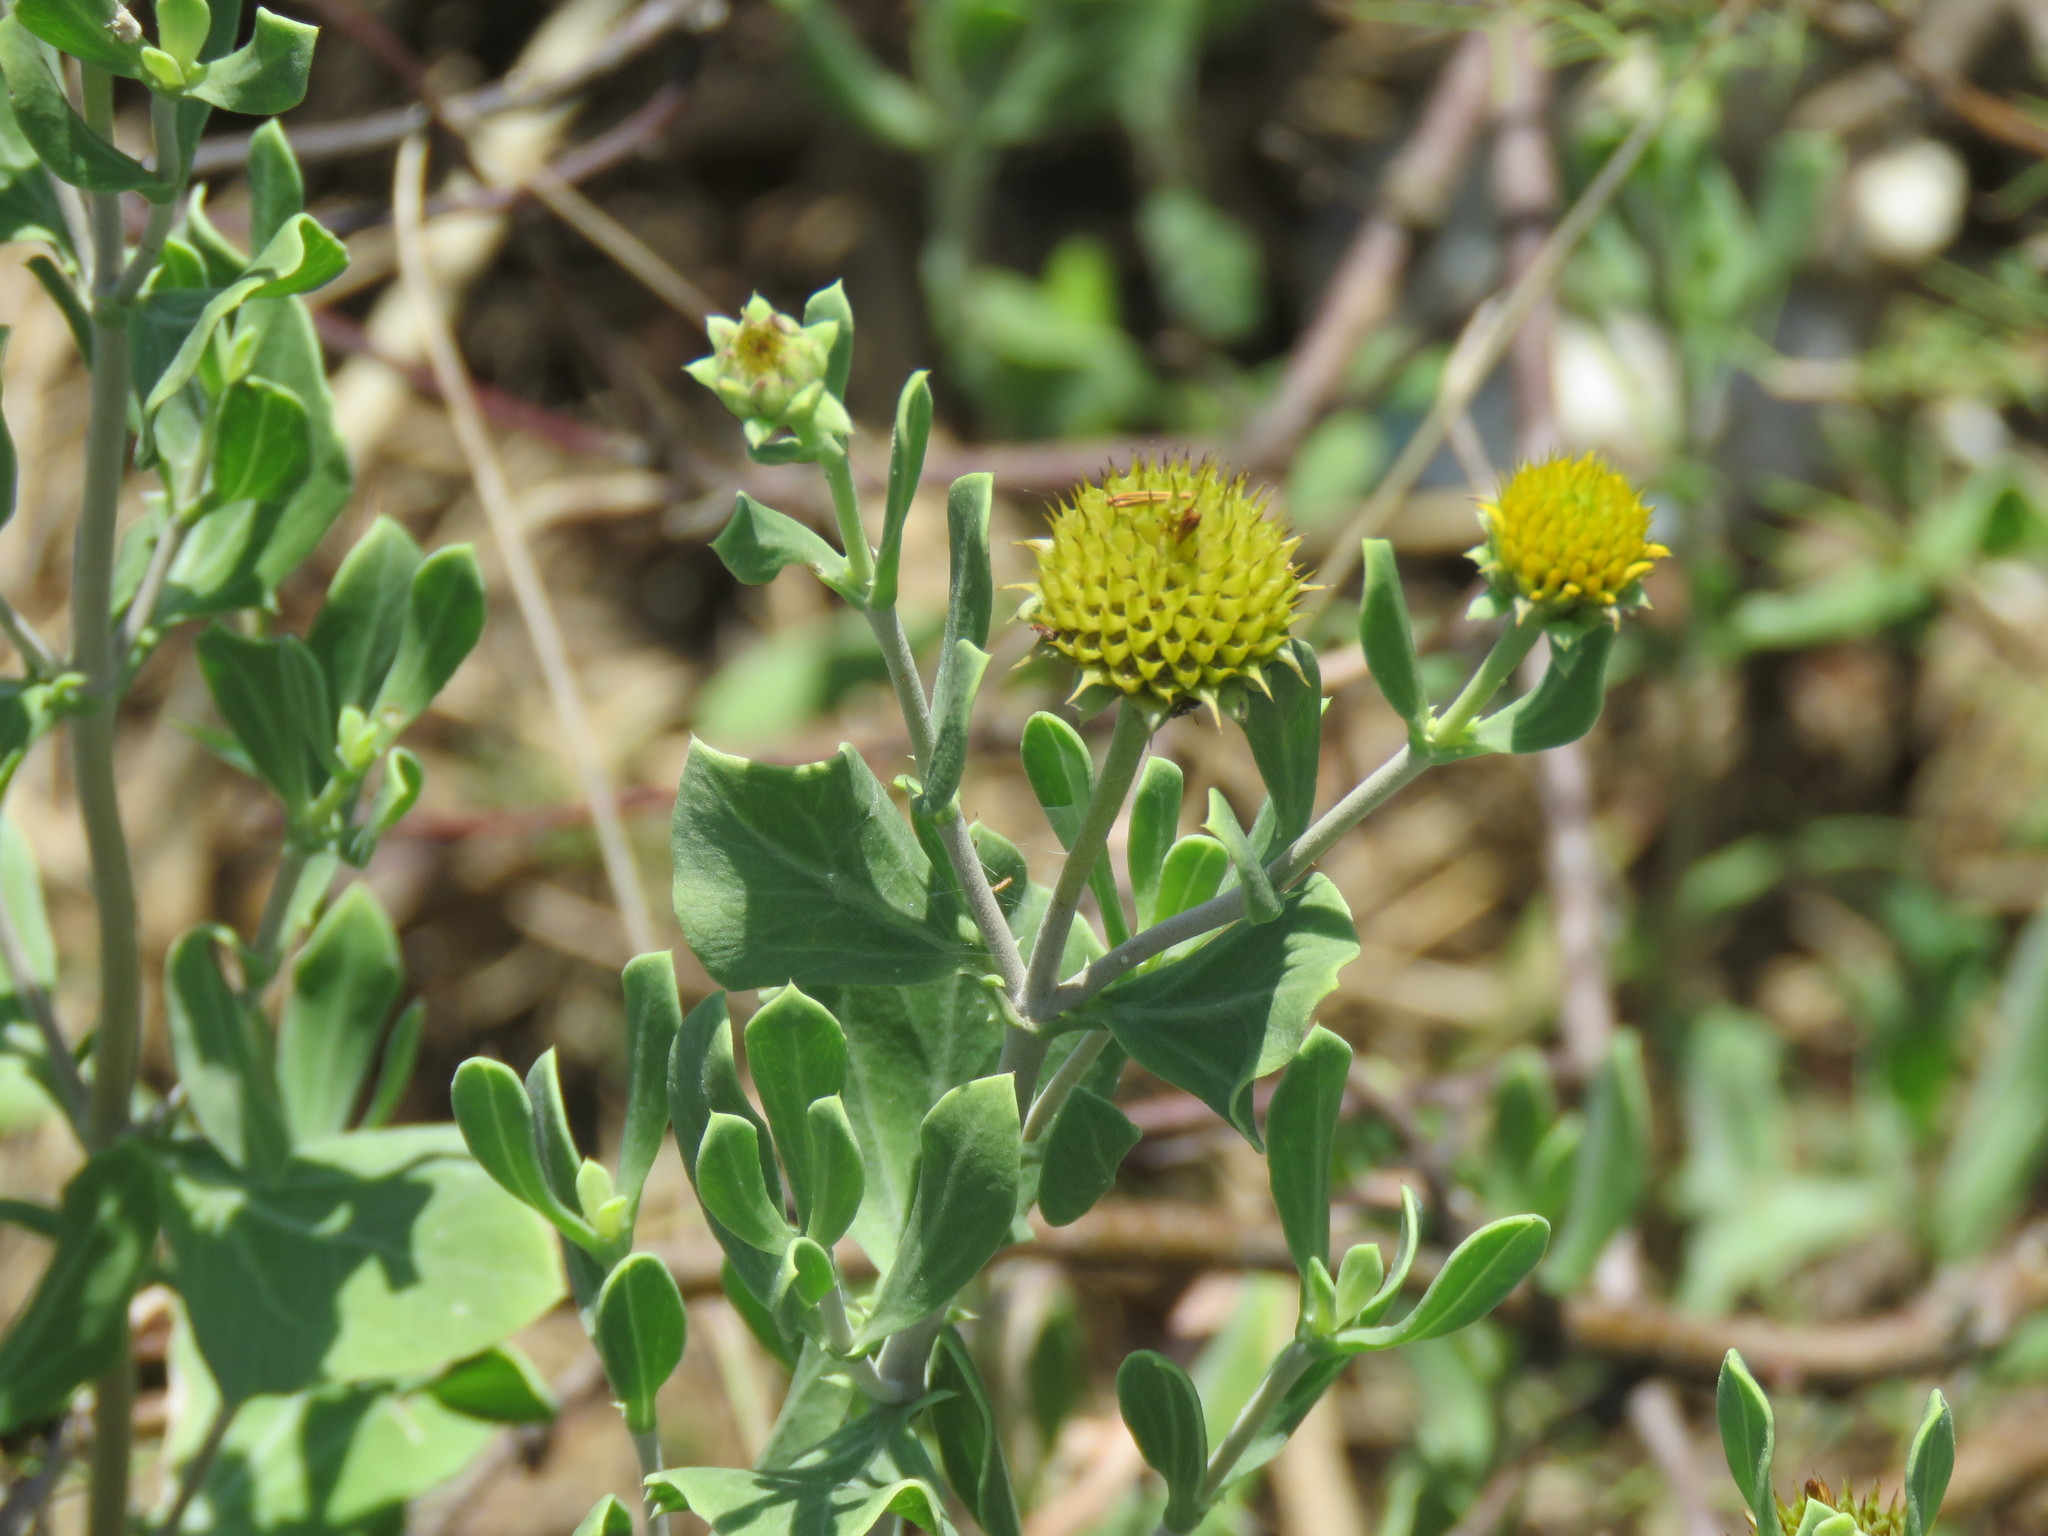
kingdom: Plantae
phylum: Tracheophyta
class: Magnoliopsida
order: Asterales
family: Asteraceae
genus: Borrichia
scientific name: Borrichia frutescens
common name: Sea oxeye
